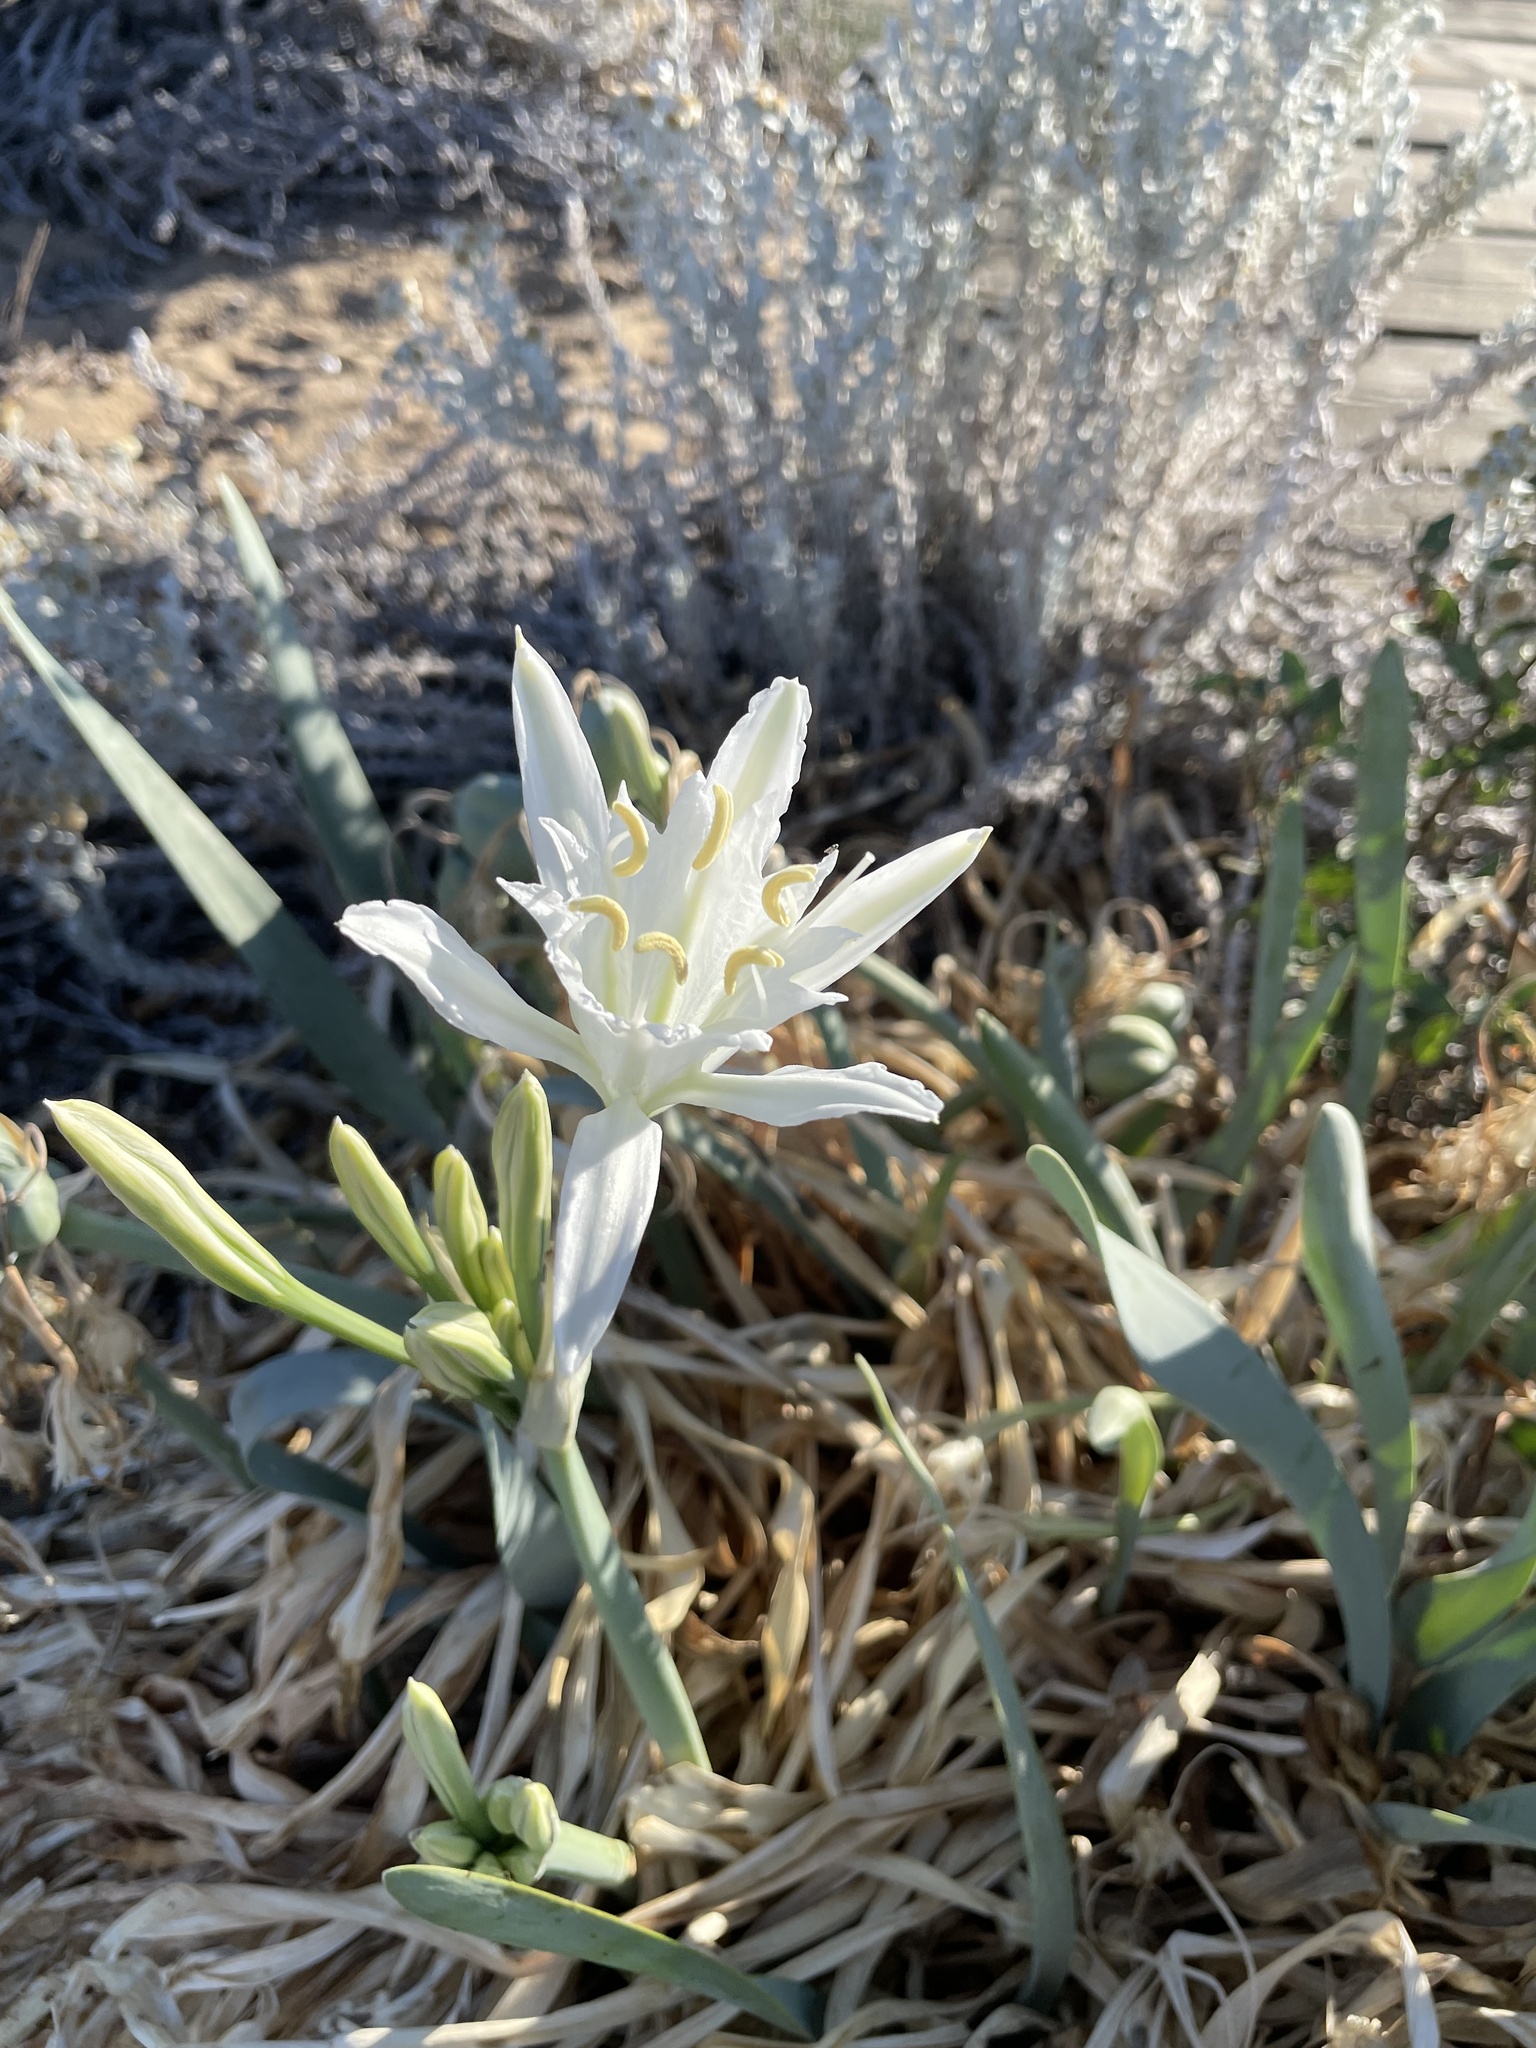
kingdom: Plantae
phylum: Tracheophyta
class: Liliopsida
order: Asparagales
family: Amaryllidaceae
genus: Pancratium
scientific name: Pancratium maritimum
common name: Sea-daffodil
